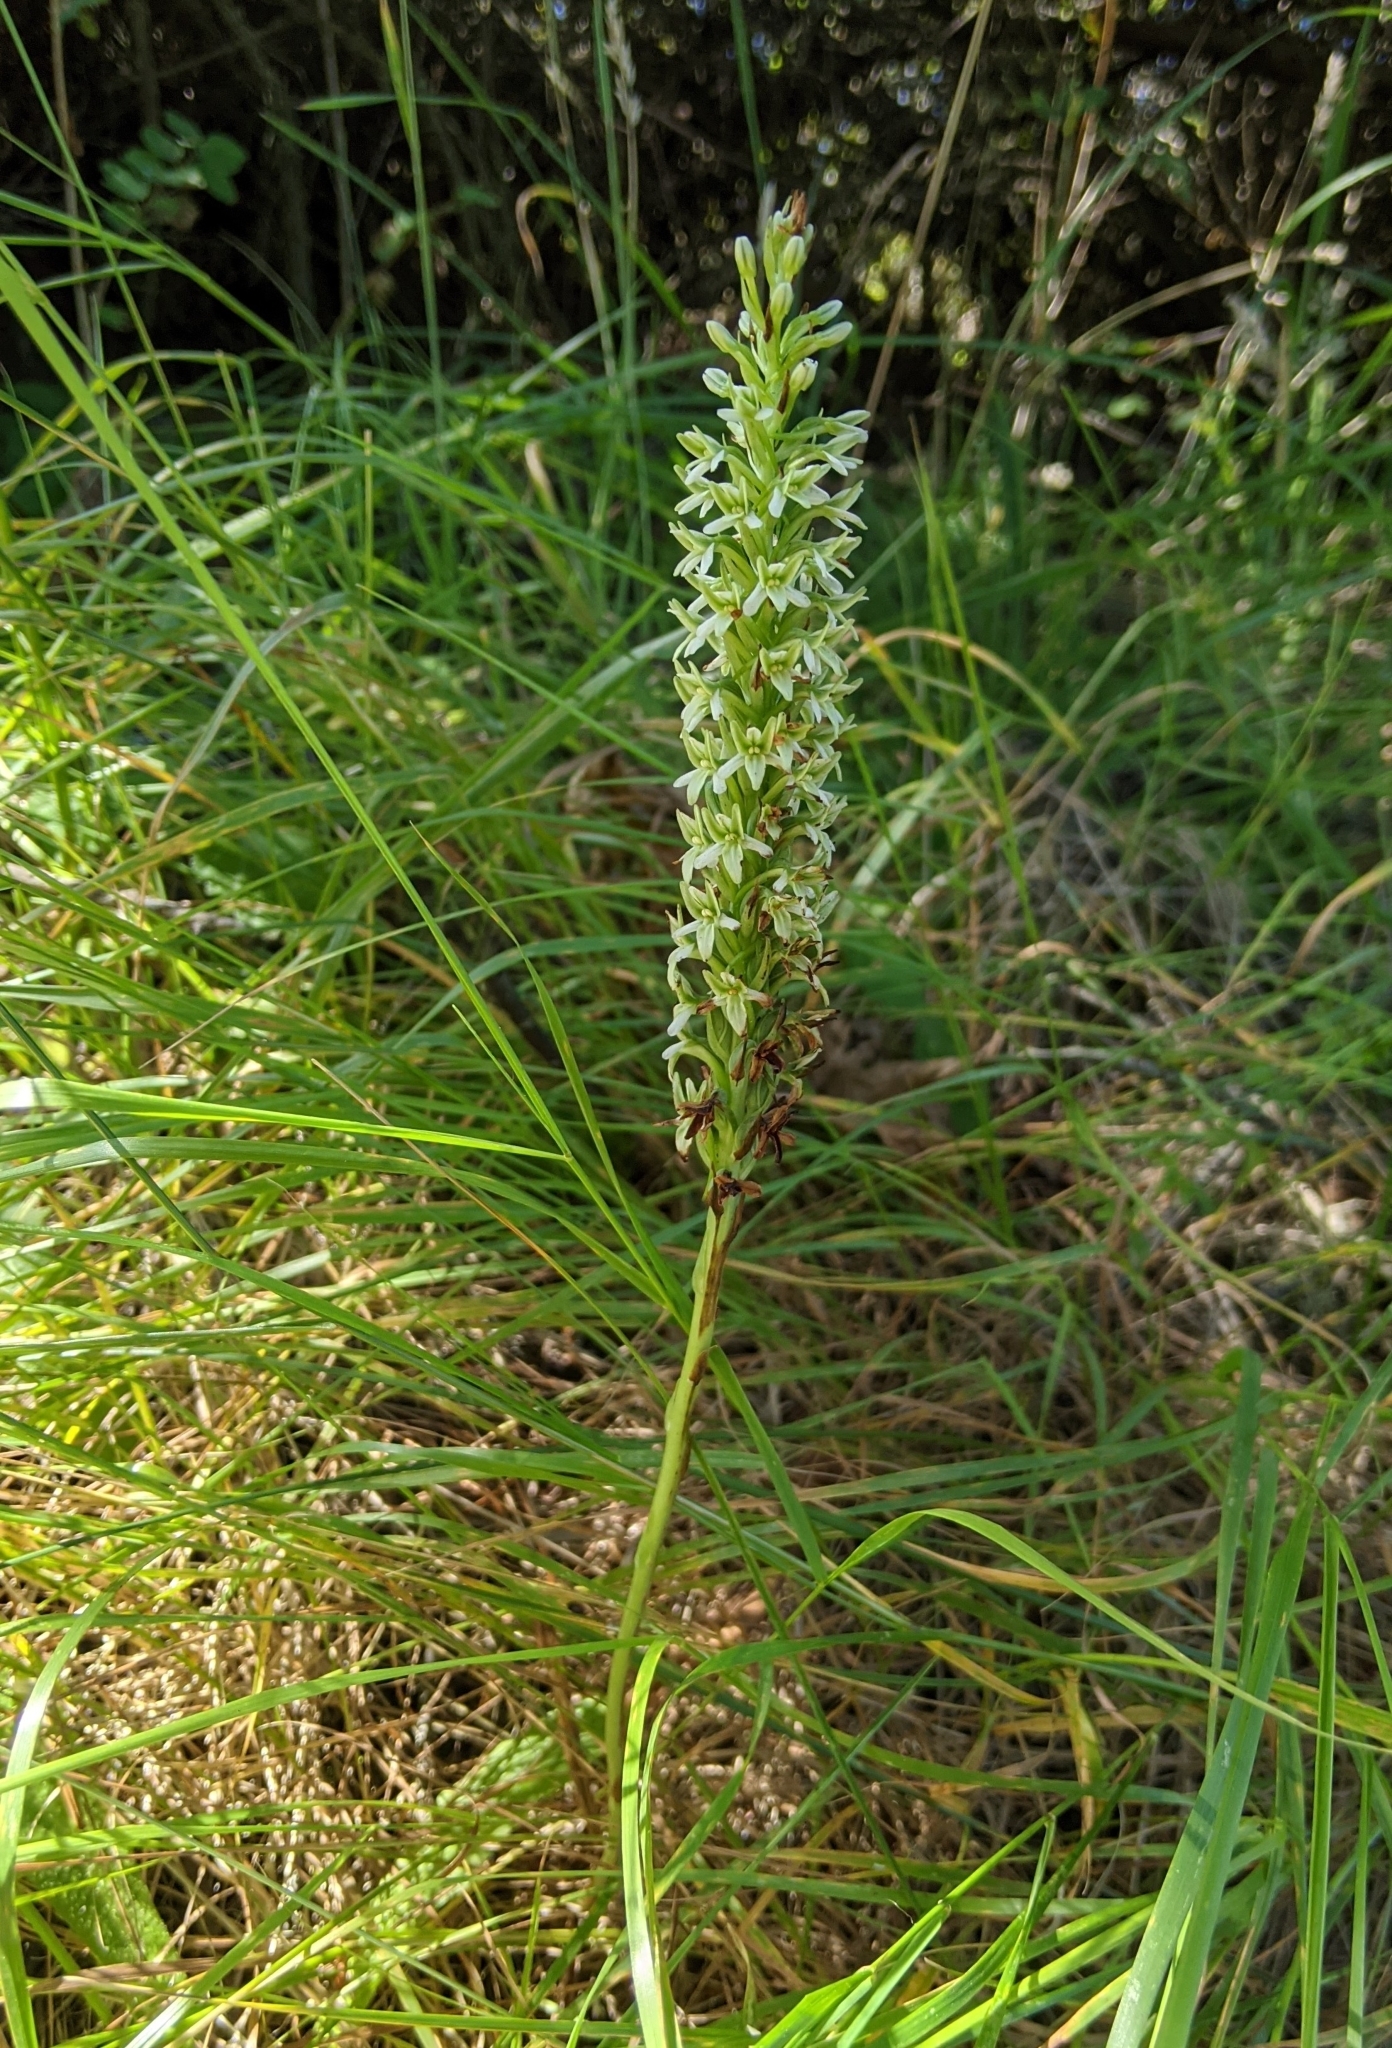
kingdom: Plantae
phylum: Tracheophyta
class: Liliopsida
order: Asparagales
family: Orchidaceae
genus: Platanthera
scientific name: Platanthera elegans
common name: Coast piperia
